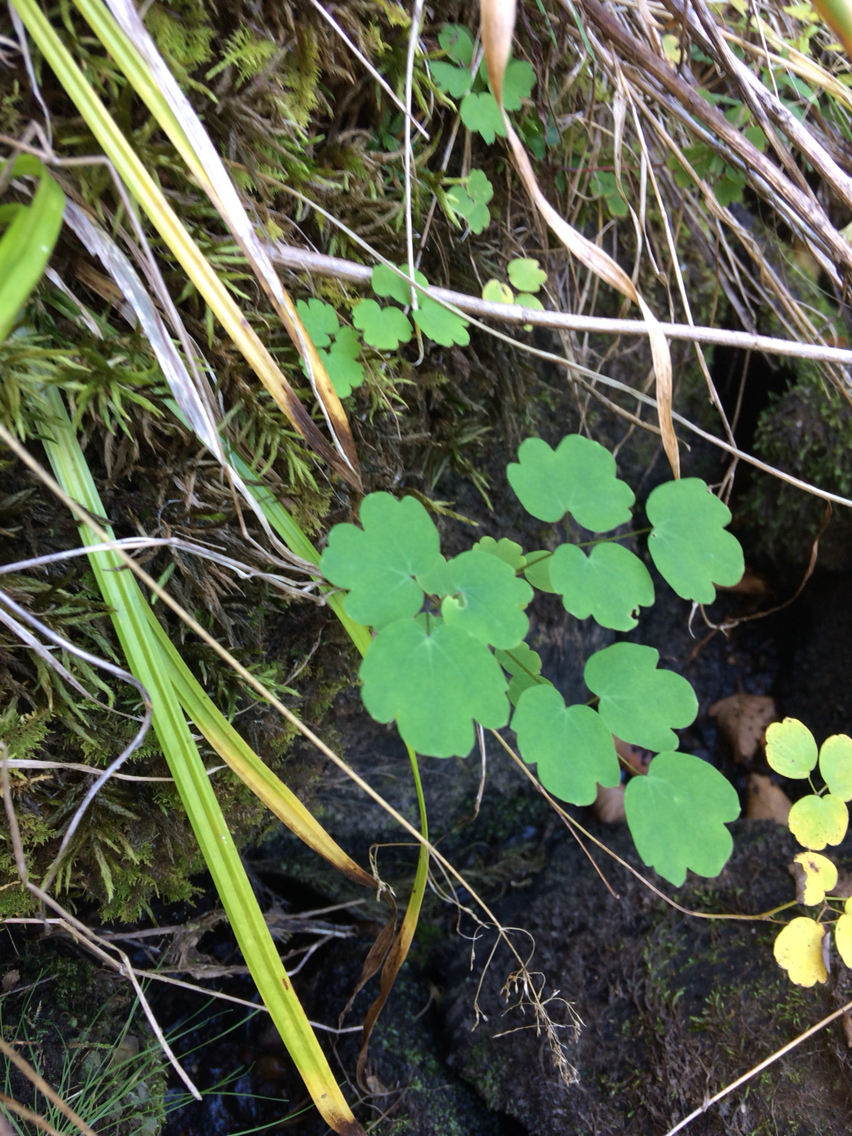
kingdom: Plantae
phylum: Tracheophyta
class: Magnoliopsida
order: Ranunculales
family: Ranunculaceae
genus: Thalictrum
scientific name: Thalictrum pubescens
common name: King-of-the-meadow
